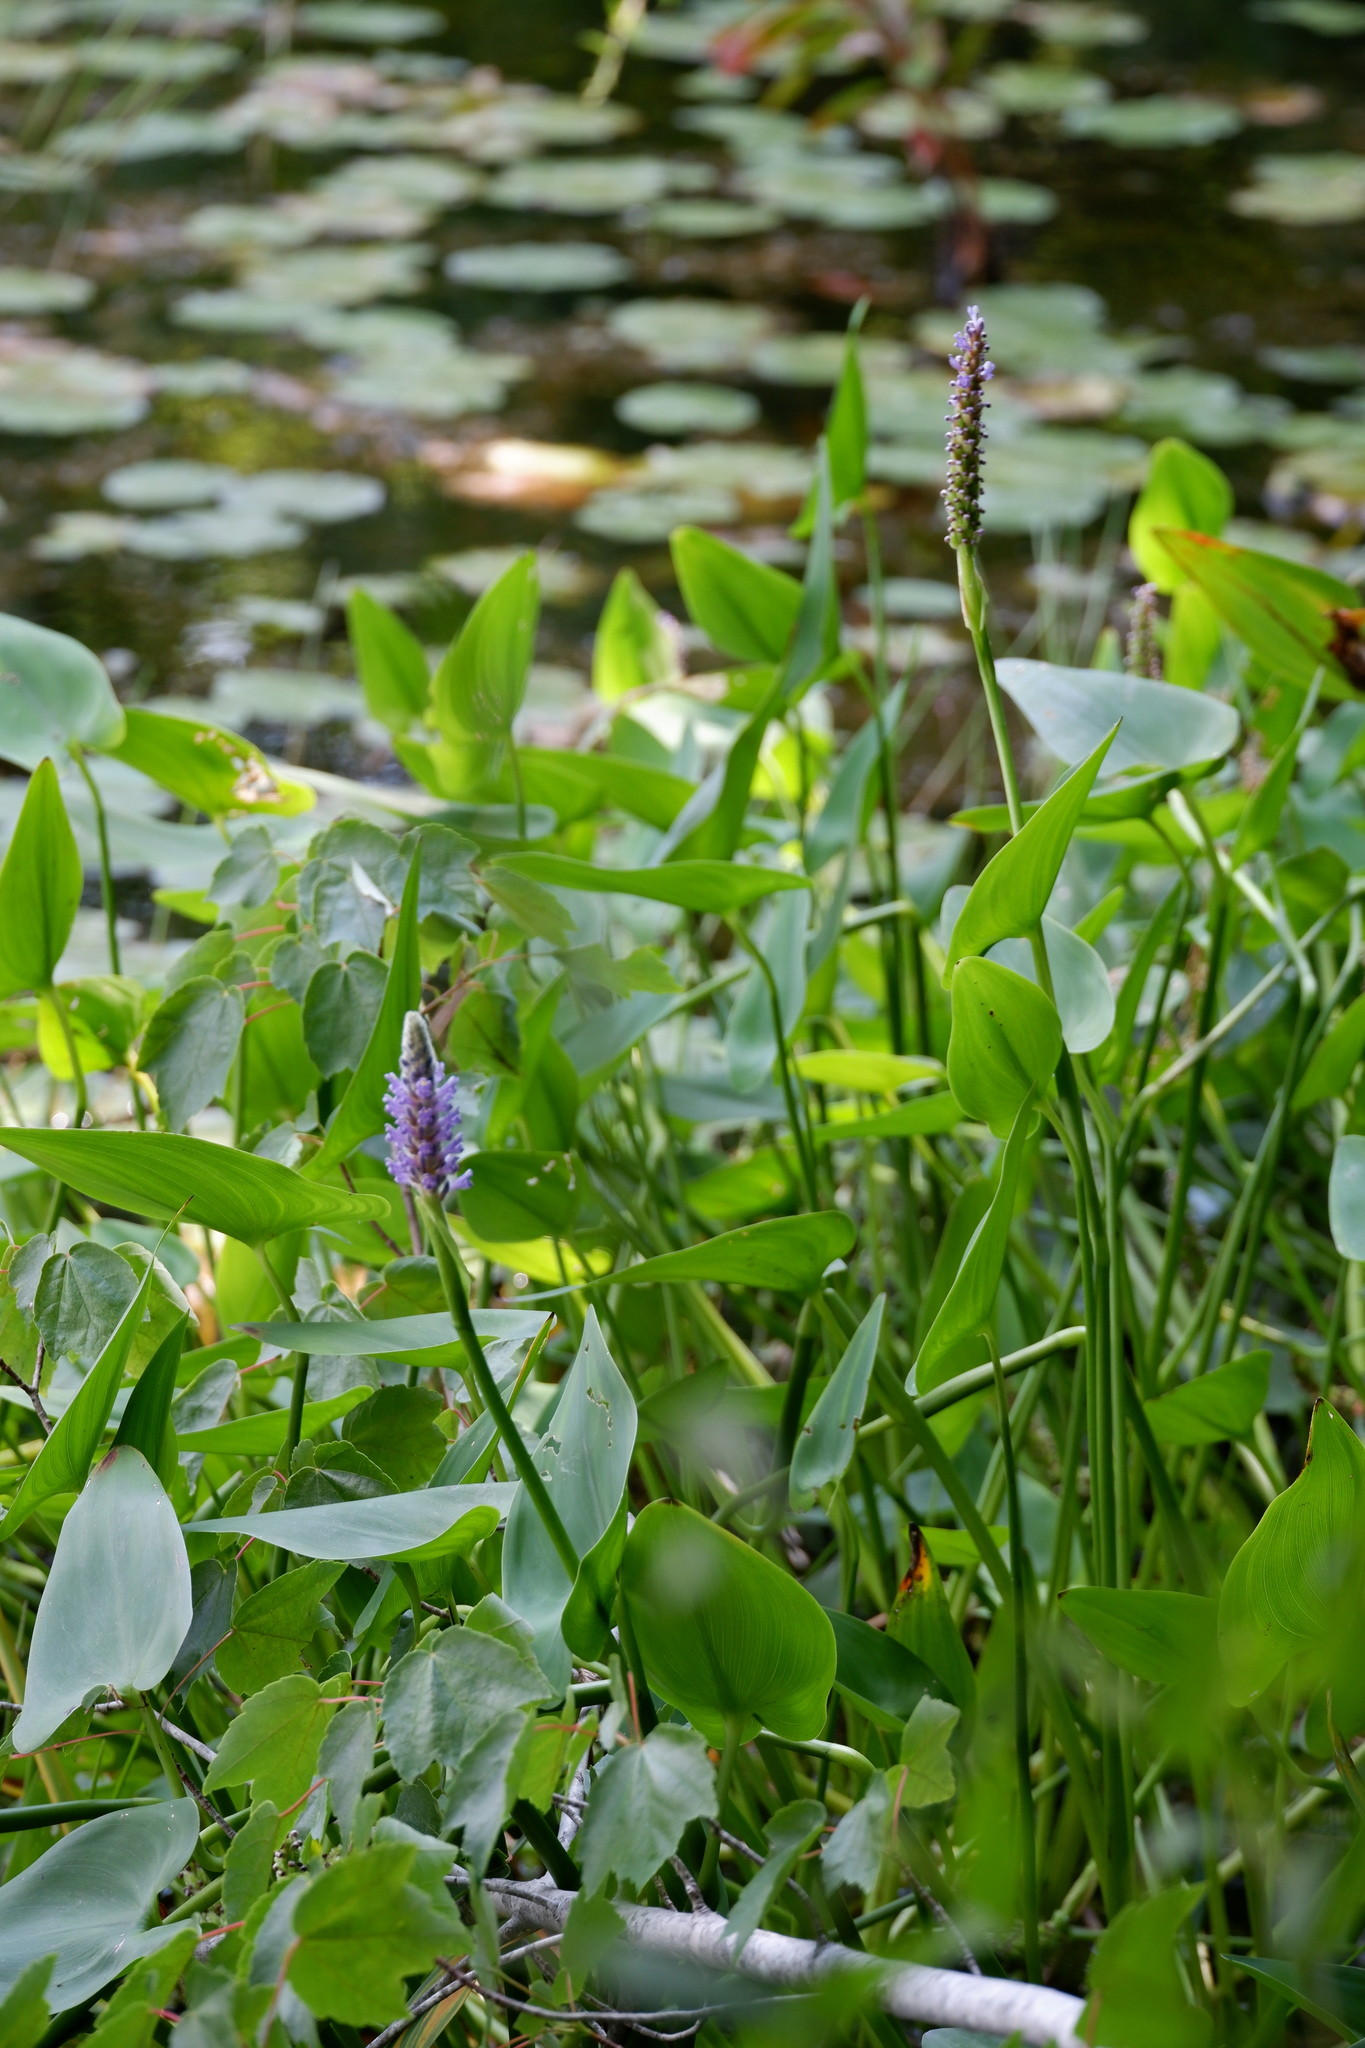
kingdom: Plantae
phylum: Tracheophyta
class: Liliopsida
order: Commelinales
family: Pontederiaceae
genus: Pontederia
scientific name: Pontederia cordata
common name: Pickerelweed
